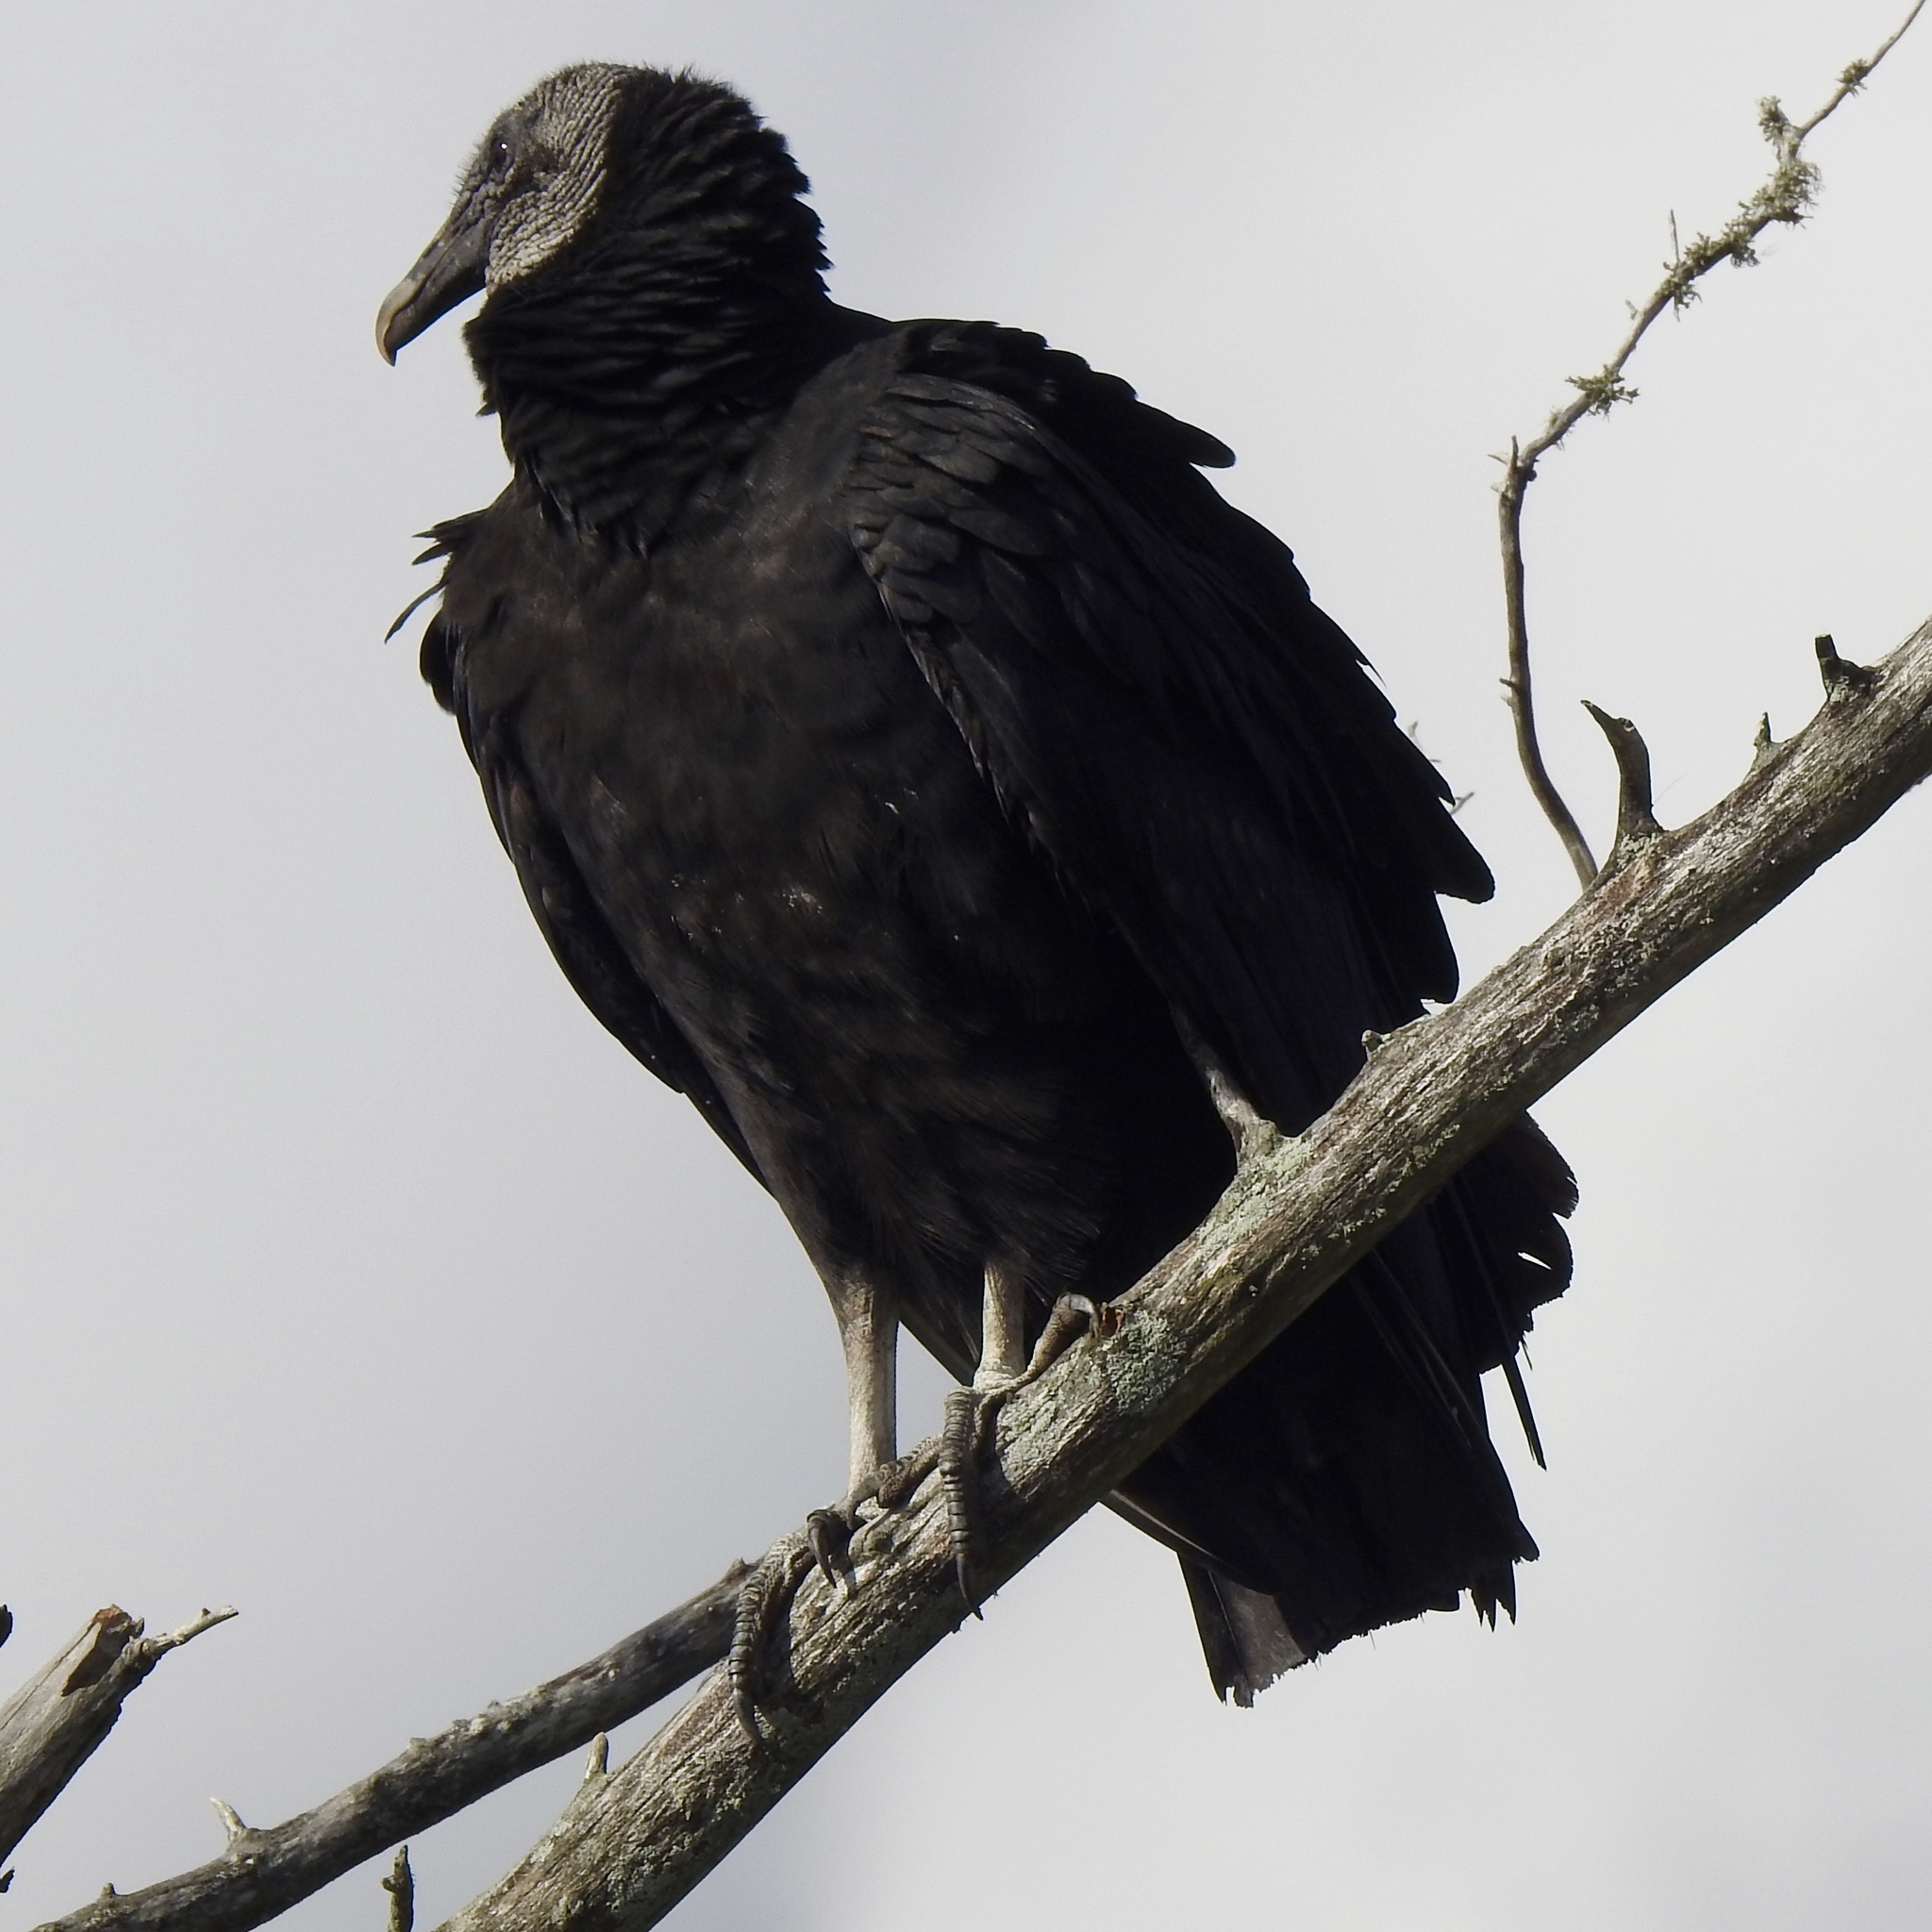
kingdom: Animalia
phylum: Chordata
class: Aves
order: Accipitriformes
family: Cathartidae
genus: Coragyps
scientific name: Coragyps atratus
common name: Black vulture
